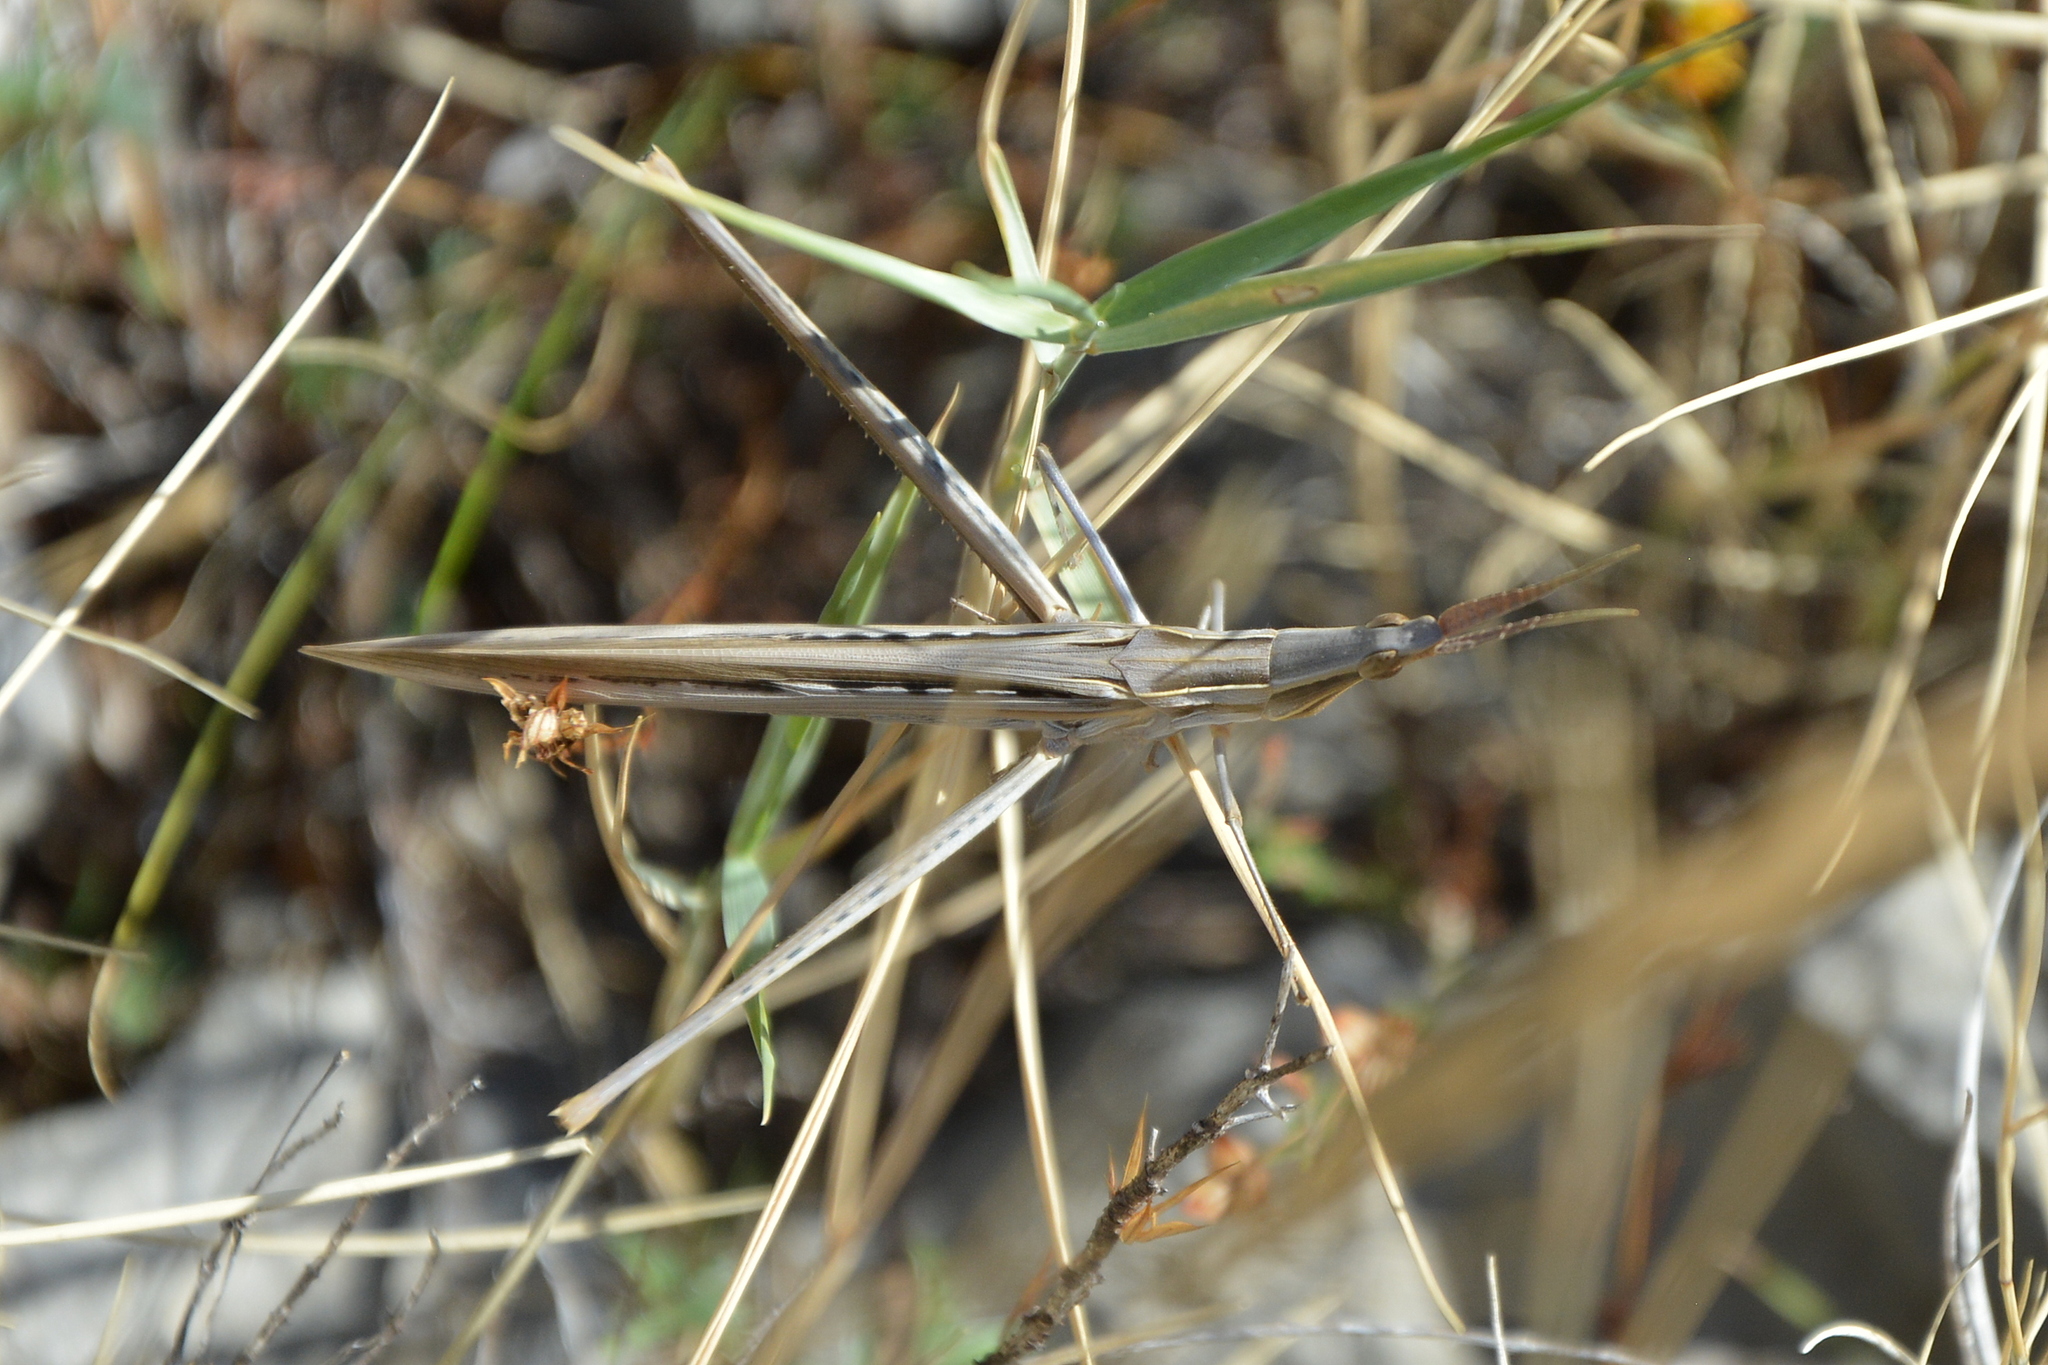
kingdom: Animalia
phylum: Arthropoda
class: Insecta
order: Orthoptera
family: Acrididae
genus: Acrida
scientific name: Acrida ungarica
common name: Common cone-headed grasshopper
